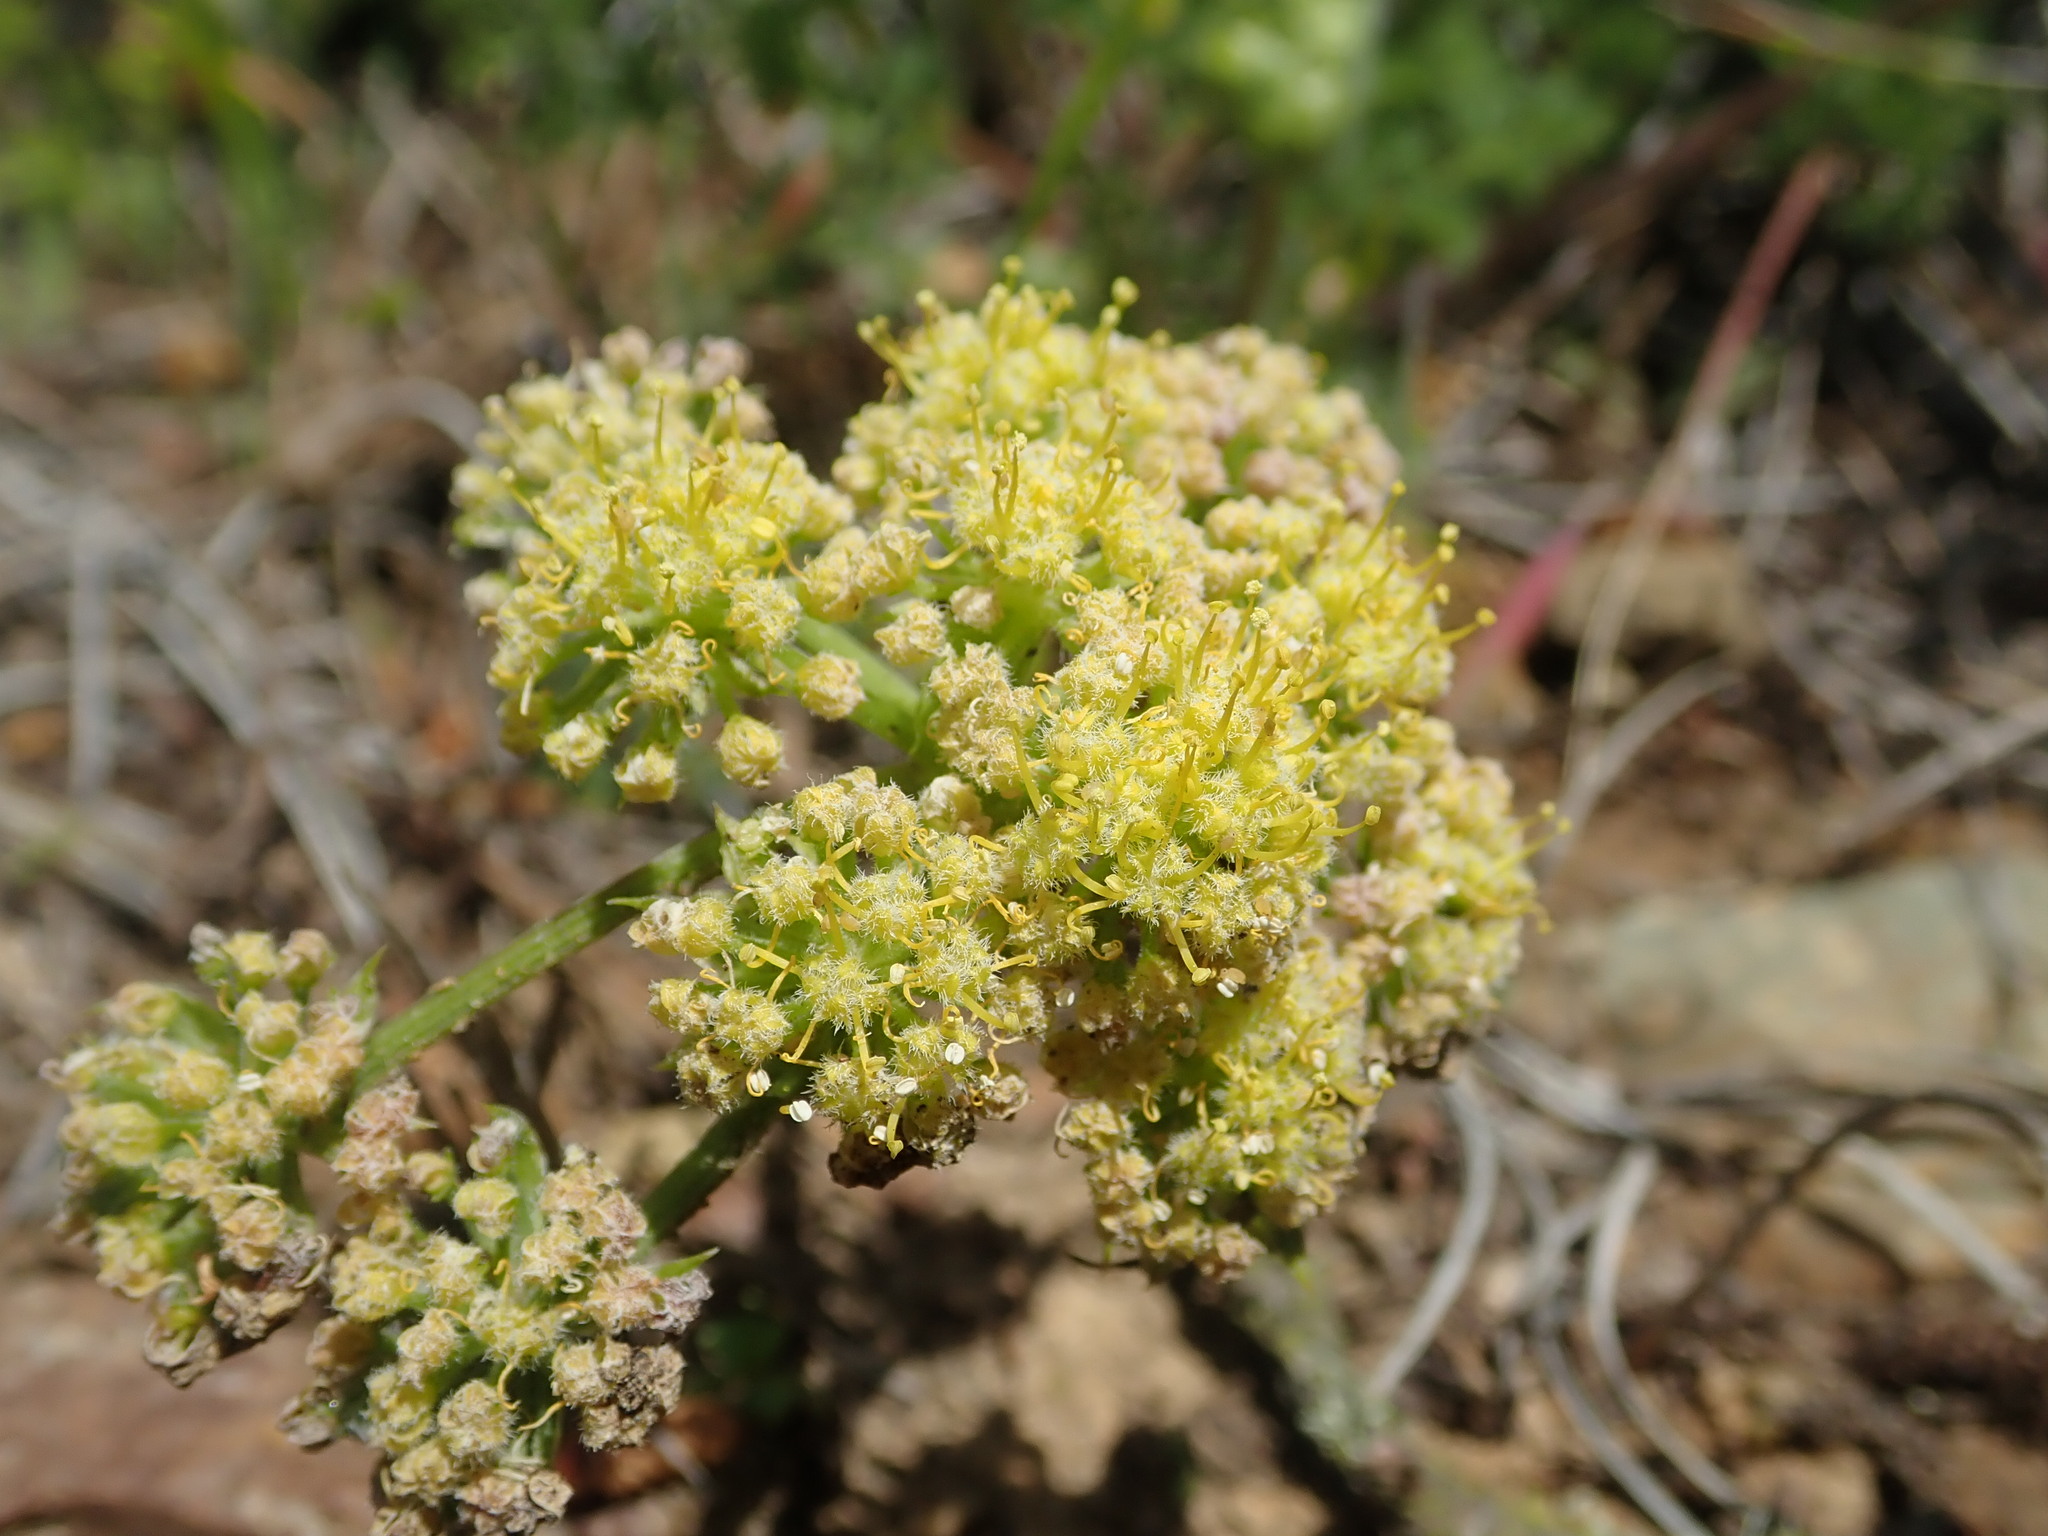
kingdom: Plantae
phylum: Tracheophyta
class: Magnoliopsida
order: Apiales
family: Apiaceae
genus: Lomatium
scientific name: Lomatium dasycarpum
